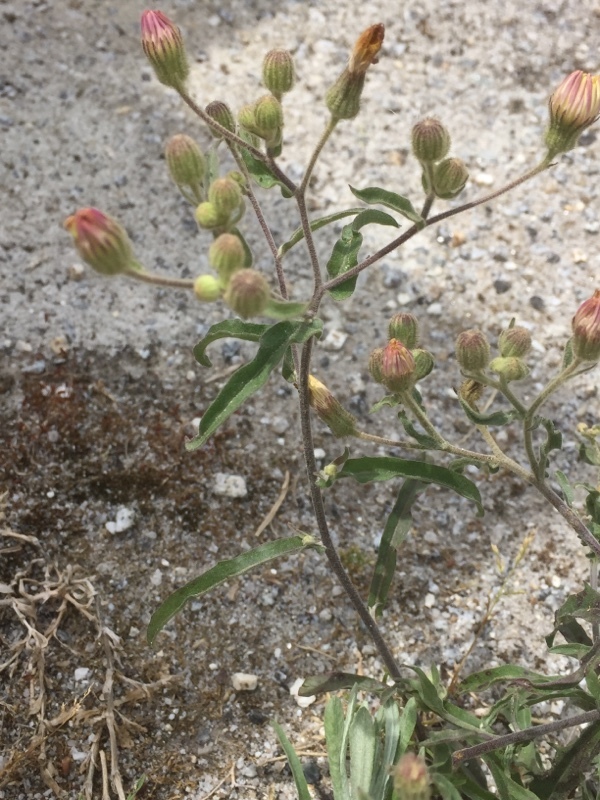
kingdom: Plantae
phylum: Tracheophyta
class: Magnoliopsida
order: Asterales
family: Asteraceae
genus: Erigeron
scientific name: Erigeron acris
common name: Blue fleabane
